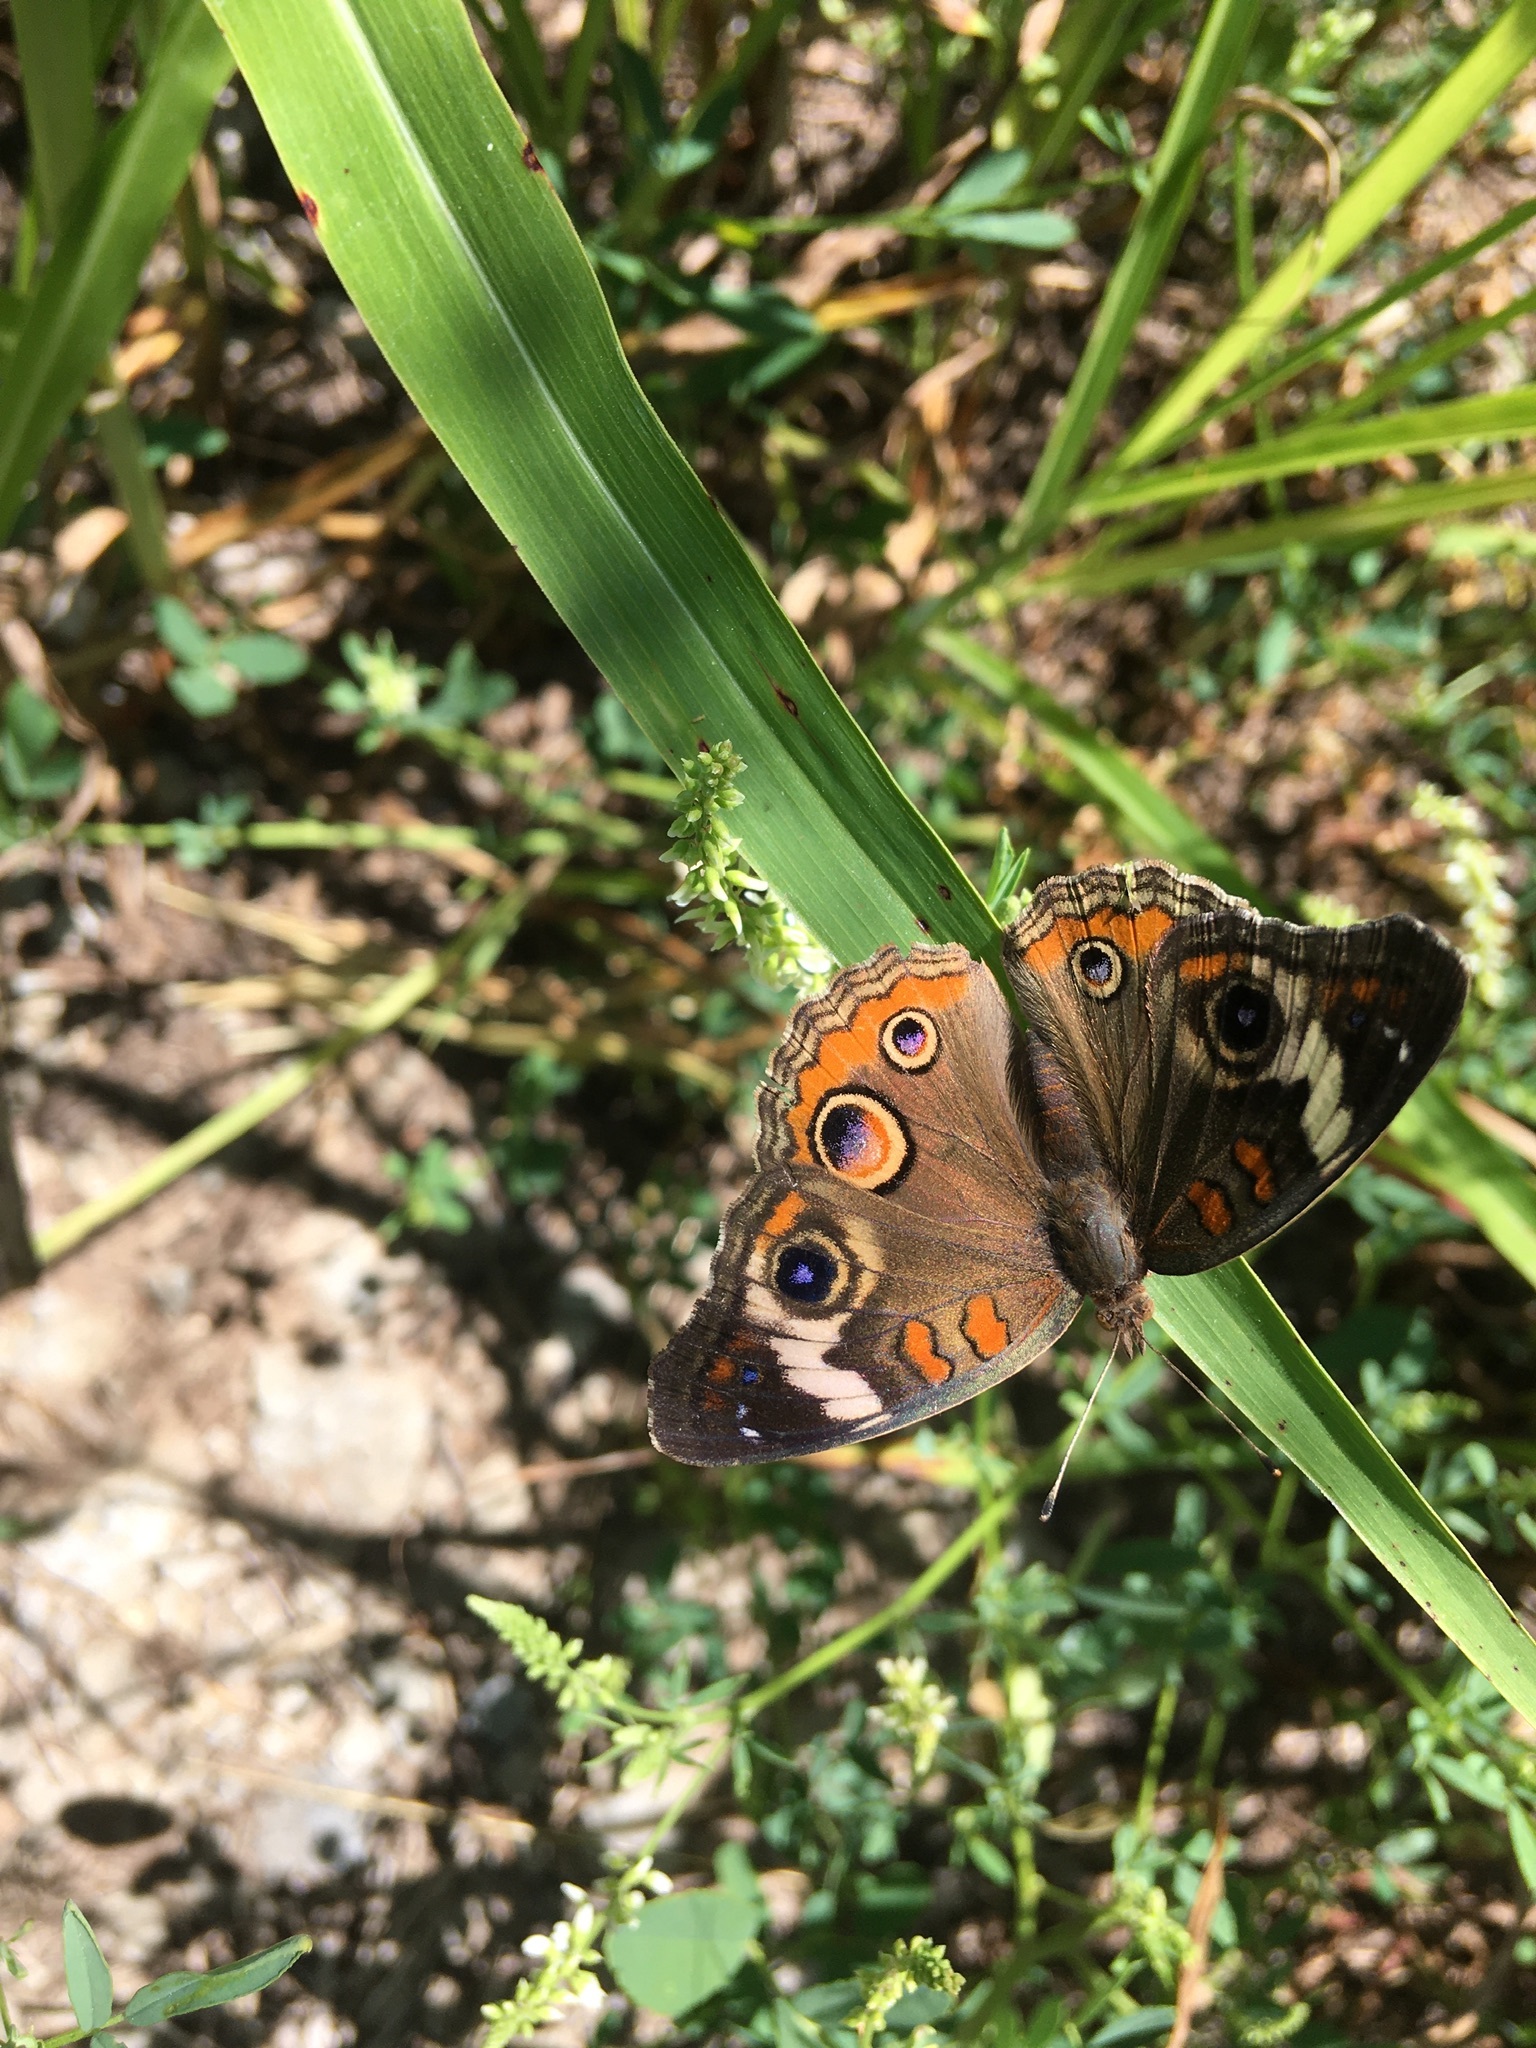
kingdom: Animalia
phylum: Arthropoda
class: Insecta
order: Lepidoptera
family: Nymphalidae
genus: Junonia
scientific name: Junonia coenia
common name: Common buckeye
